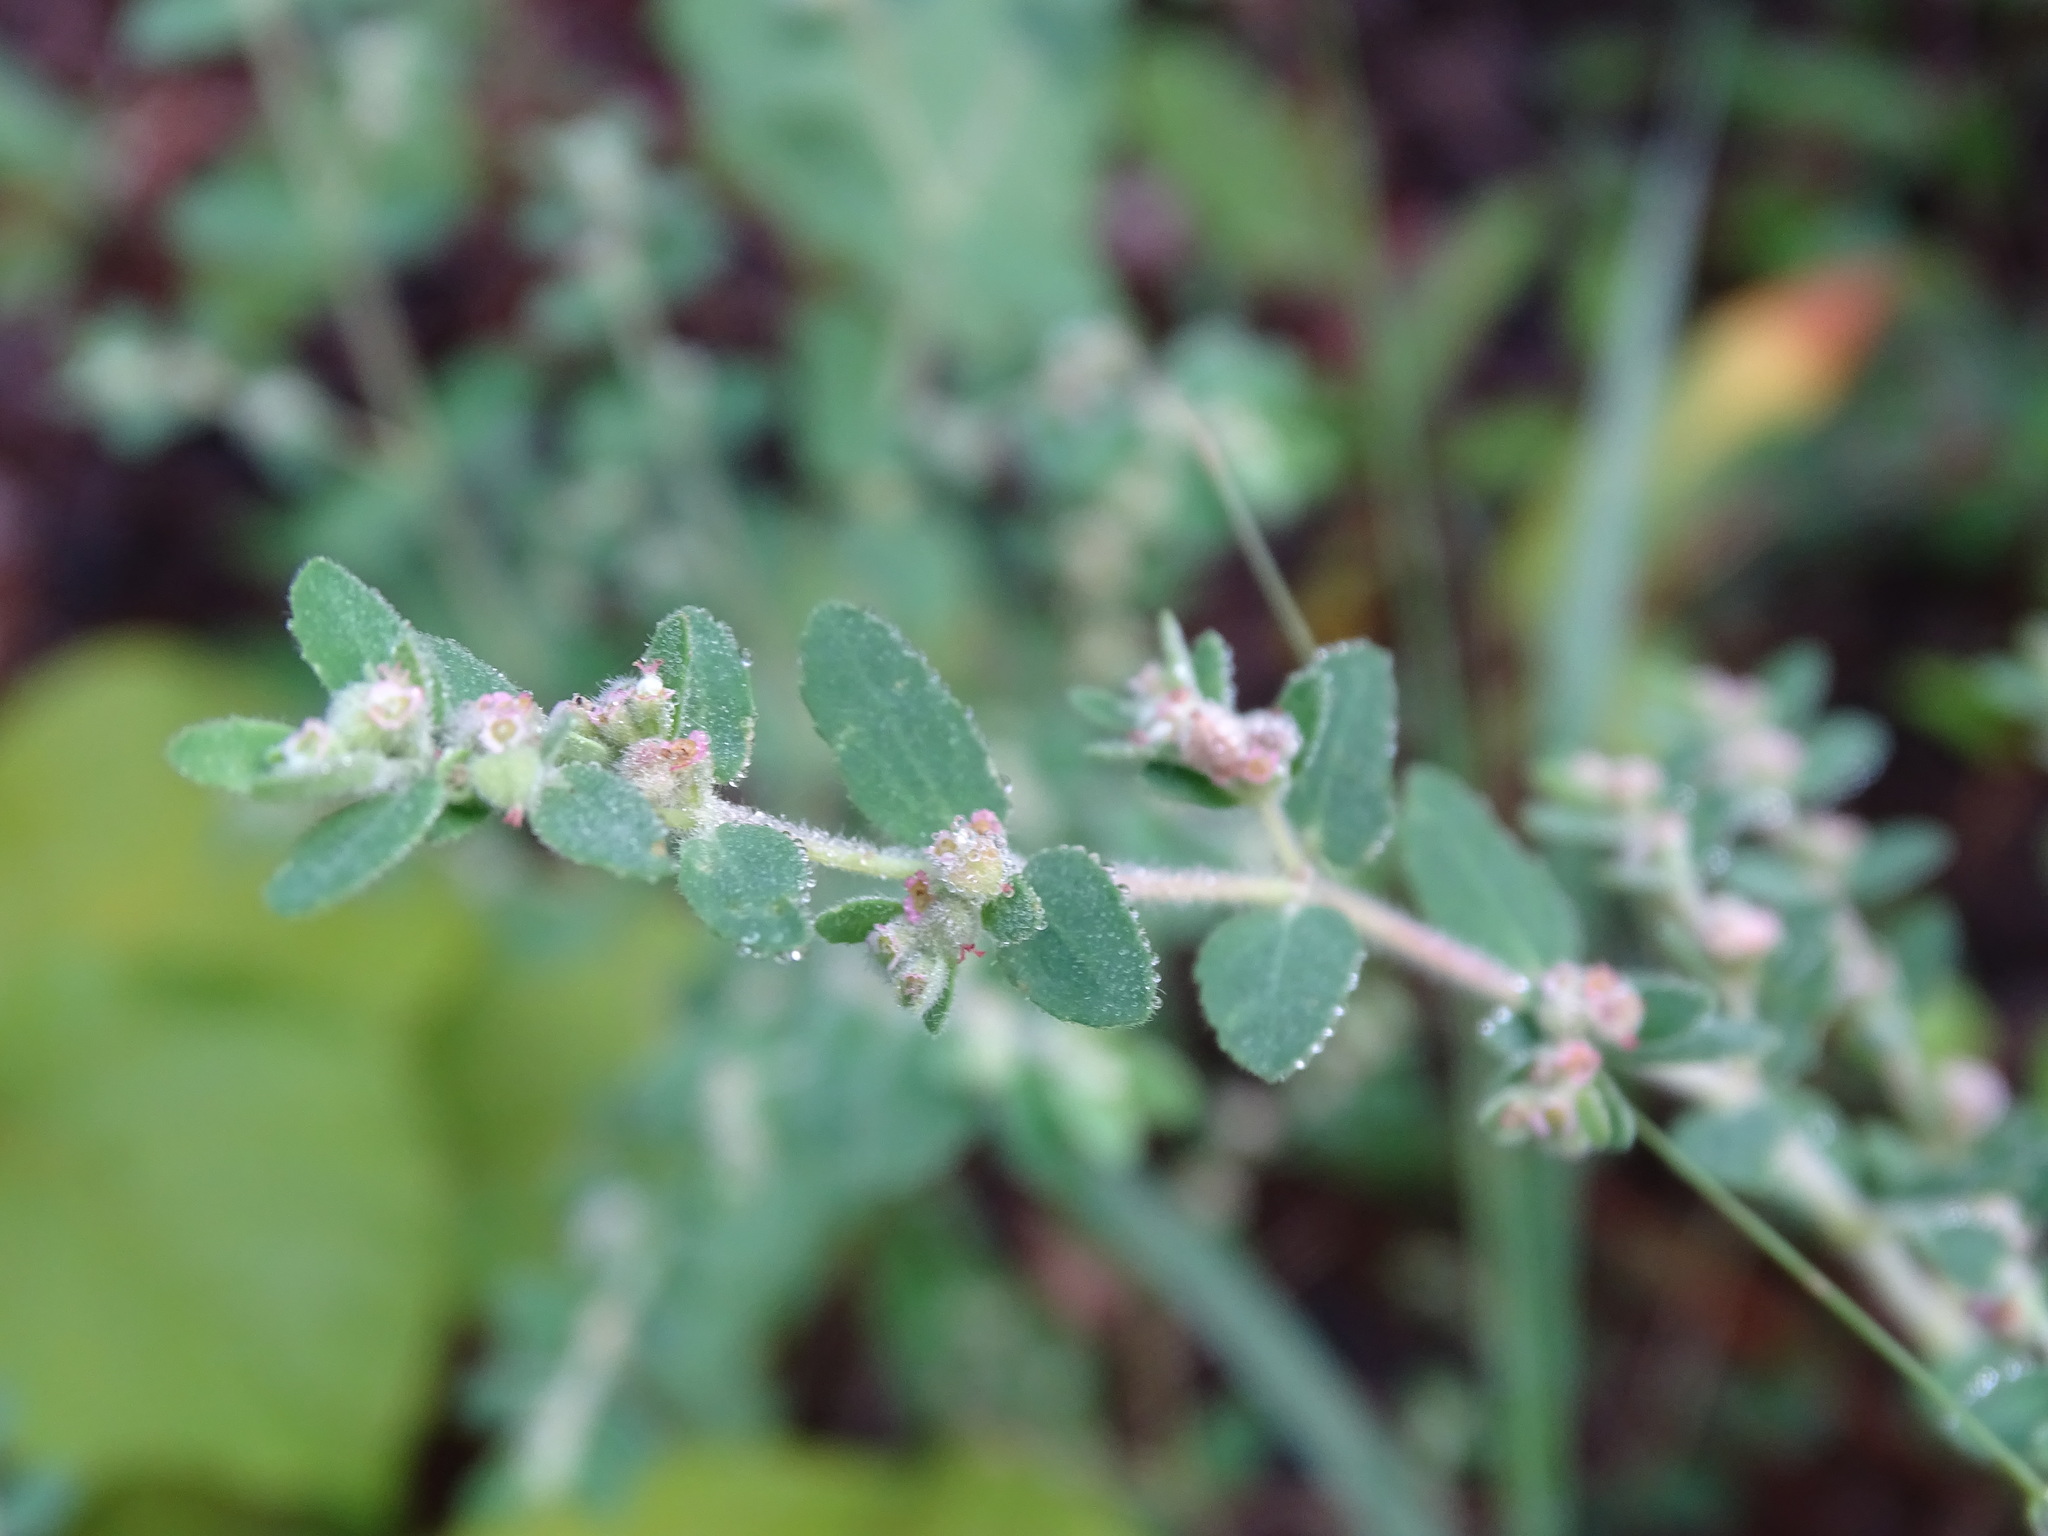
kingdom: Plantae
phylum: Tracheophyta
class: Magnoliopsida
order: Malpighiales
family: Euphorbiaceae
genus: Euphorbia
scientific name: Euphorbia cozumelensis
